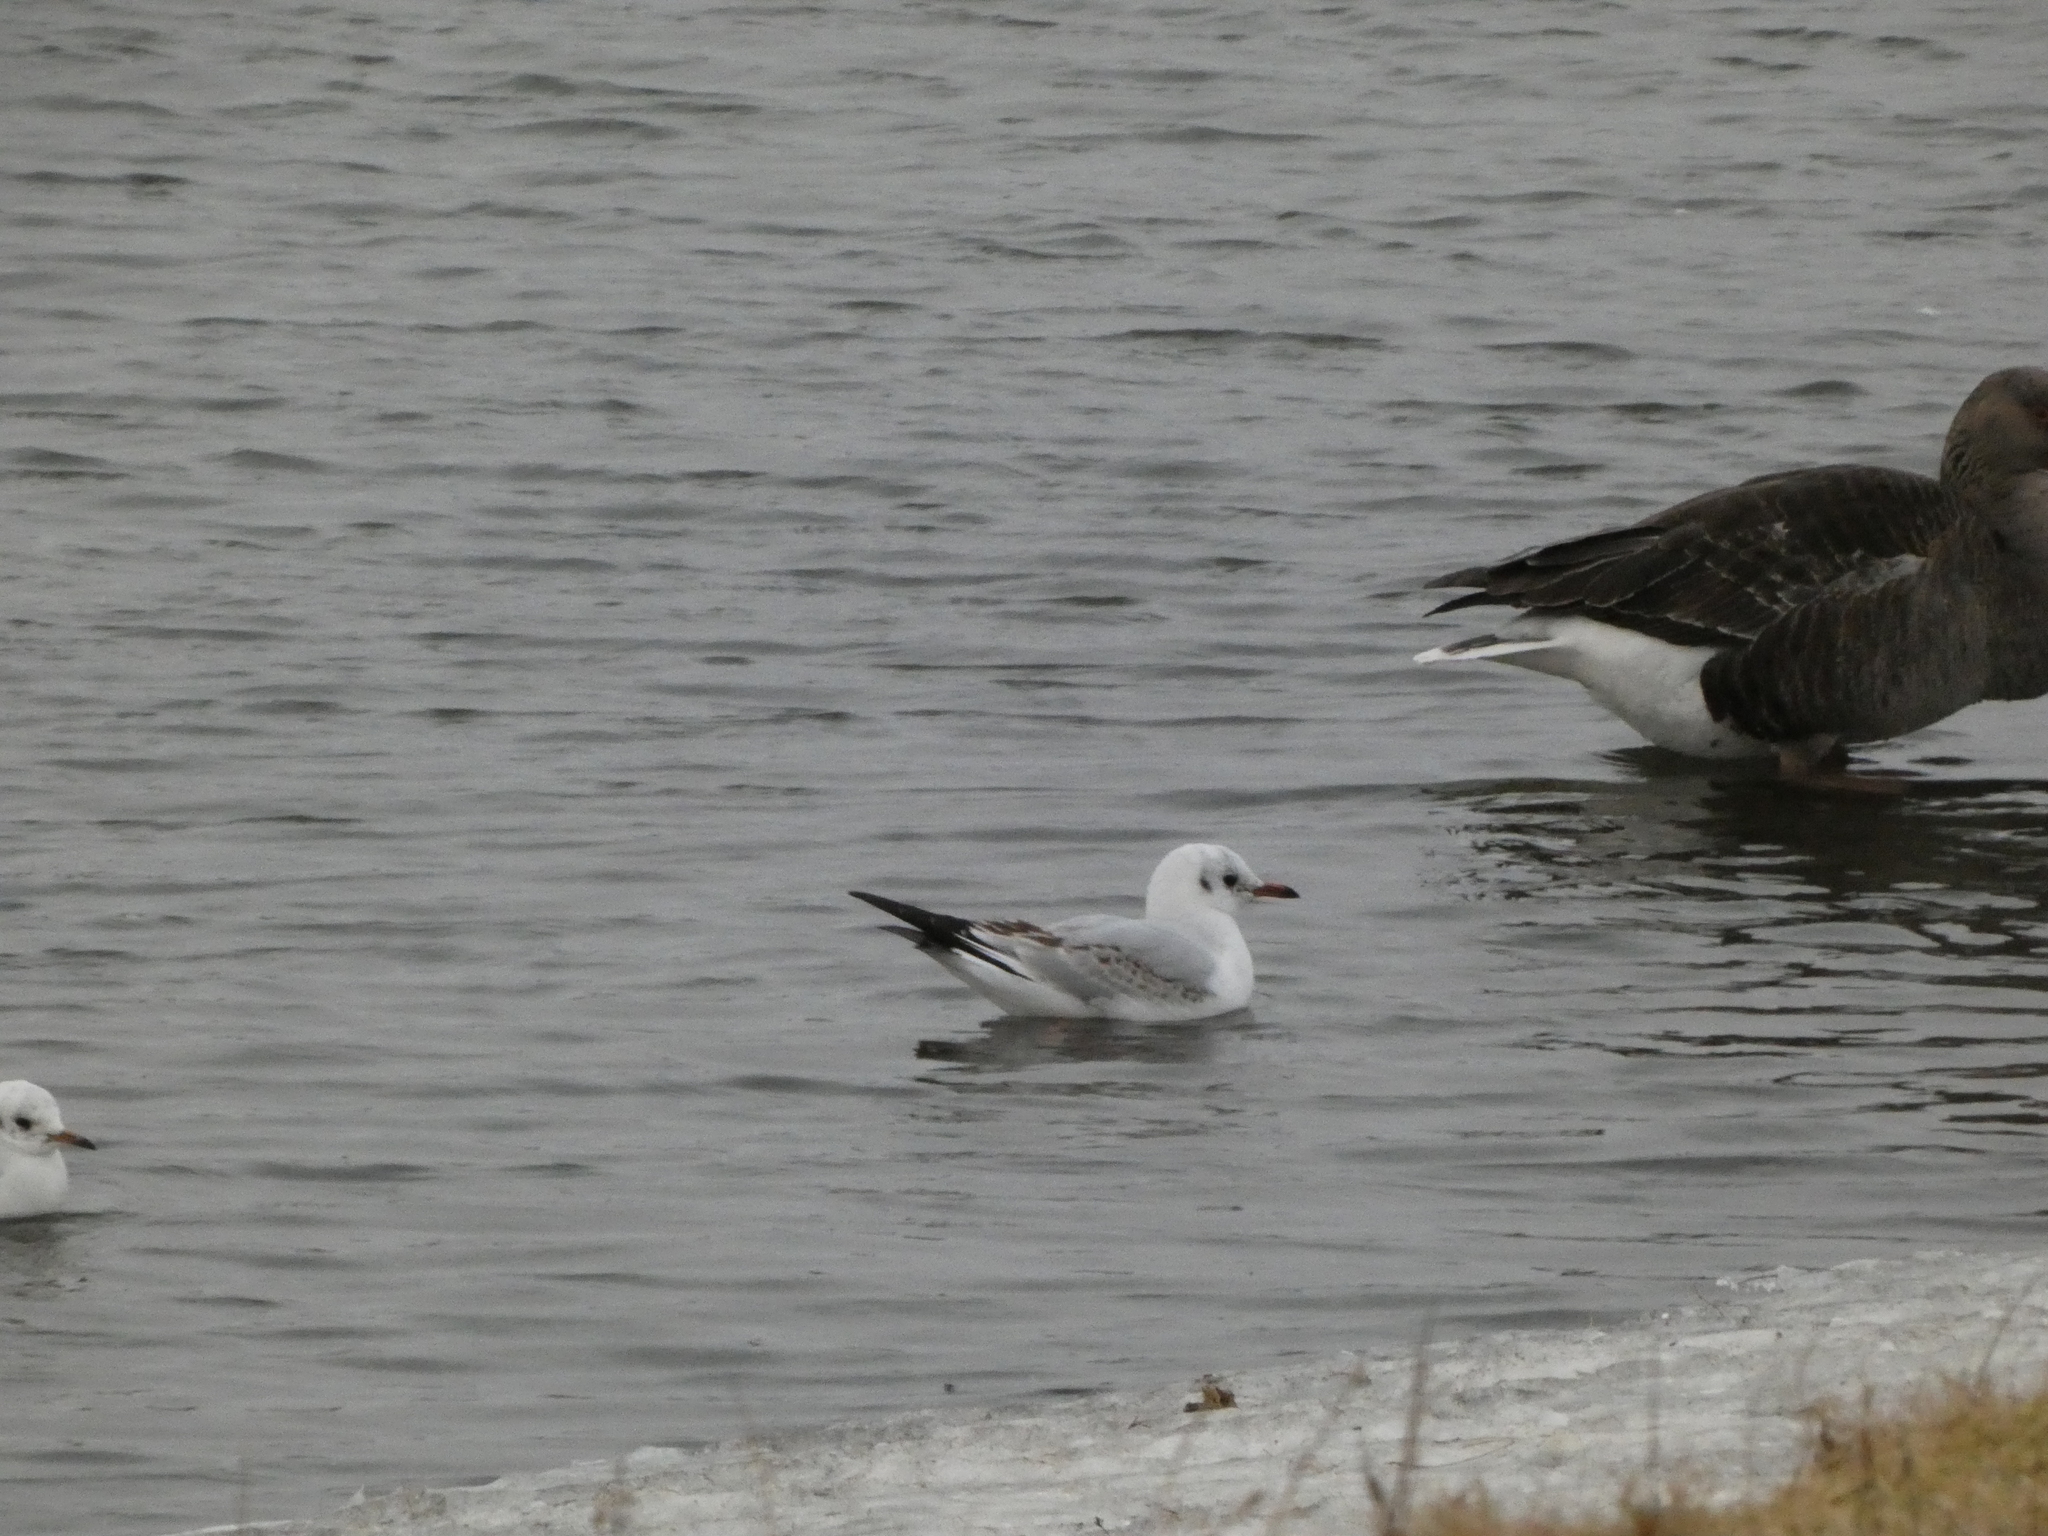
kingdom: Animalia
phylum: Chordata
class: Aves
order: Charadriiformes
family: Laridae
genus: Chroicocephalus
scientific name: Chroicocephalus ridibundus
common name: Black-headed gull
